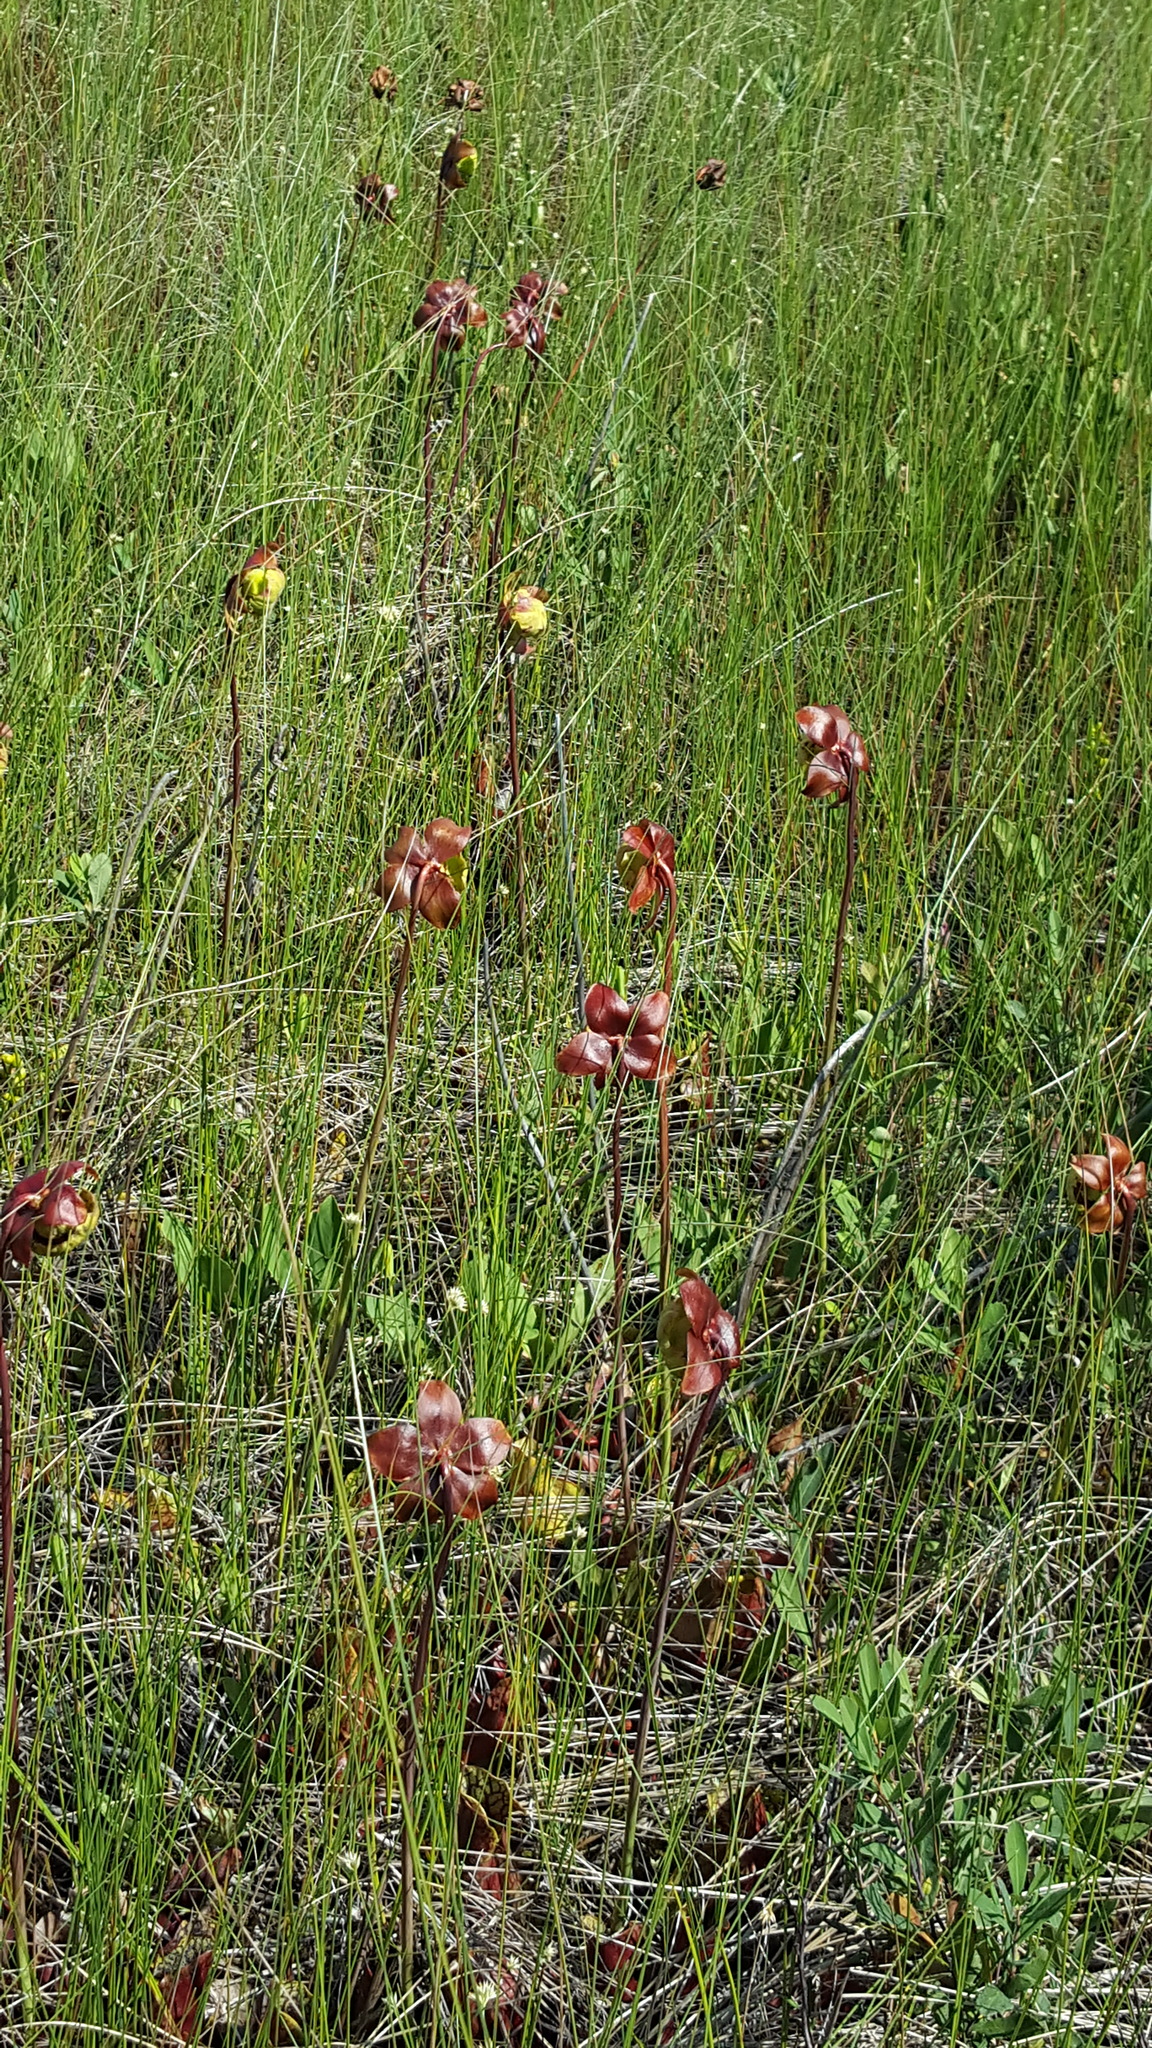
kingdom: Plantae
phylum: Tracheophyta
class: Magnoliopsida
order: Ericales
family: Sarraceniaceae
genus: Sarracenia
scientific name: Sarracenia purpurea
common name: Pitcherplant
